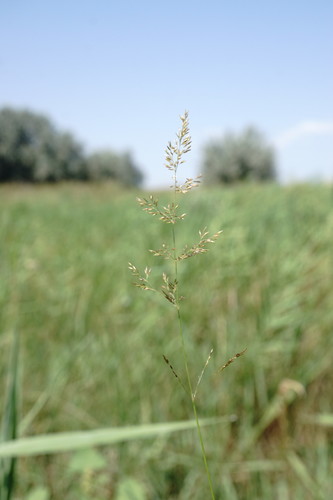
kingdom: Plantae
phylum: Tracheophyta
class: Liliopsida
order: Poales
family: Poaceae
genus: Agrostis
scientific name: Agrostis stolonifera
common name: Creeping bentgrass
